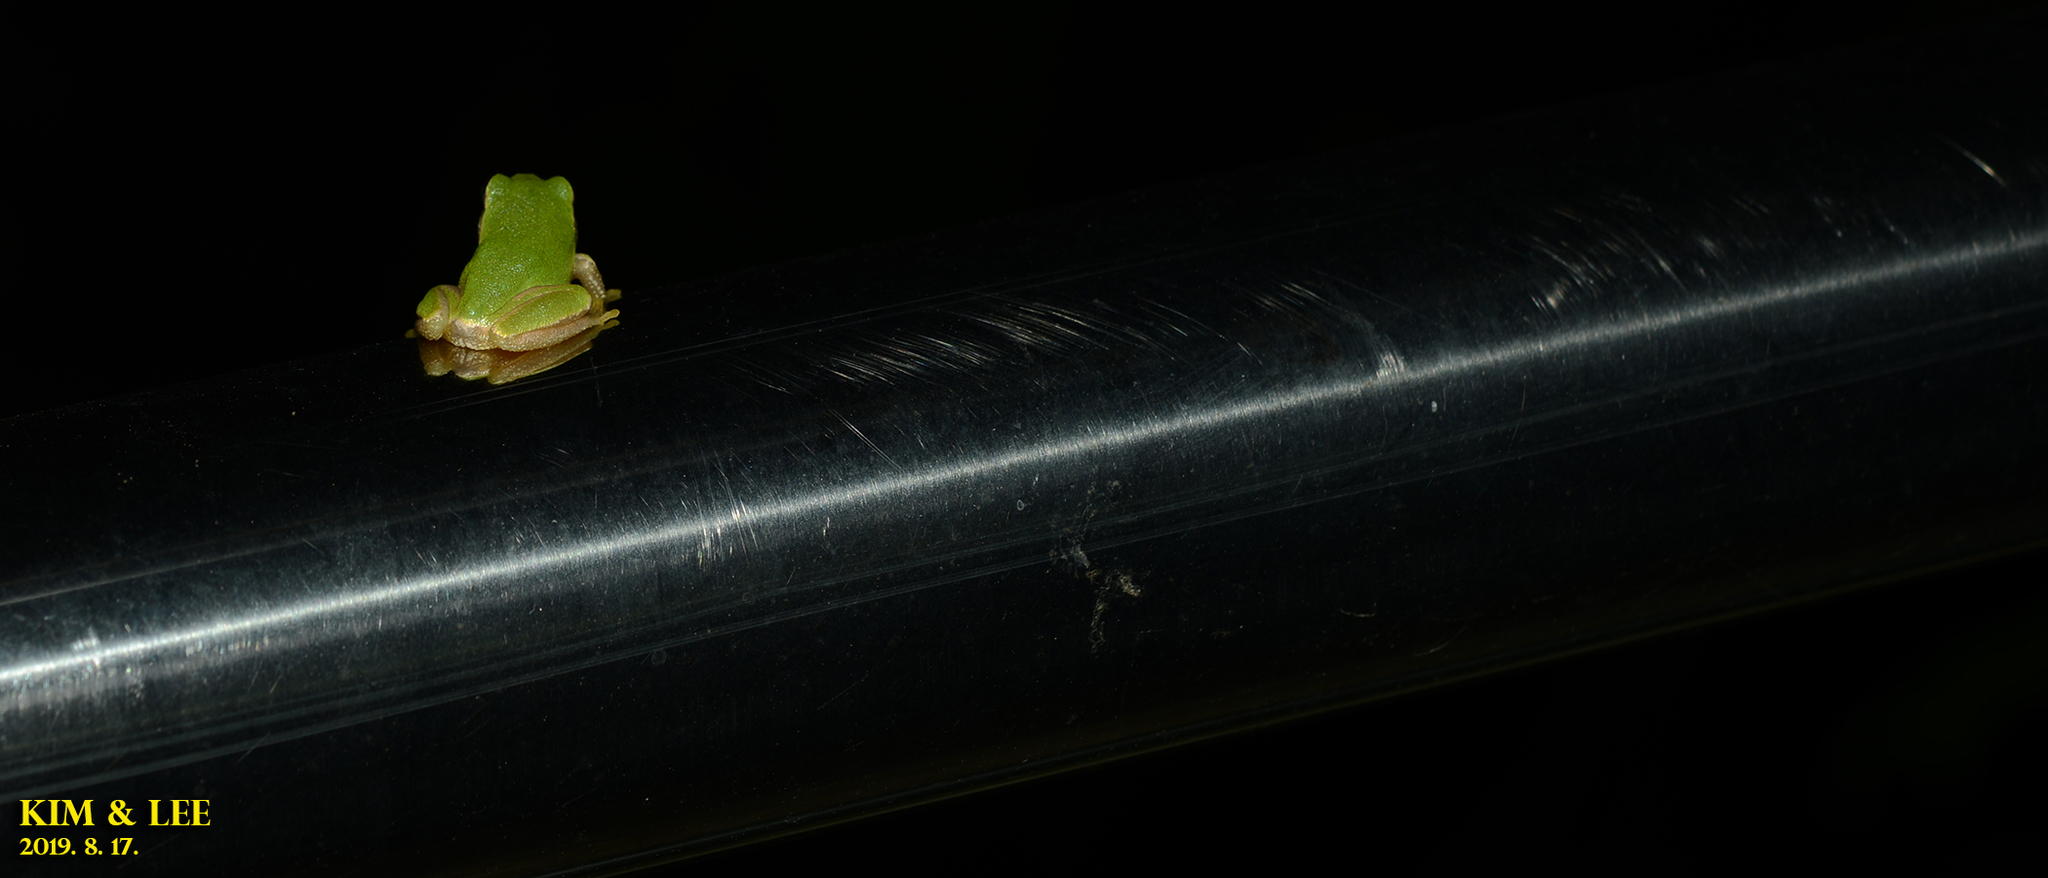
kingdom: Animalia
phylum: Chordata
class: Amphibia
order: Anura
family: Hylidae
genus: Dryophytes
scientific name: Dryophytes japonicus
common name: Japanese treefrog
